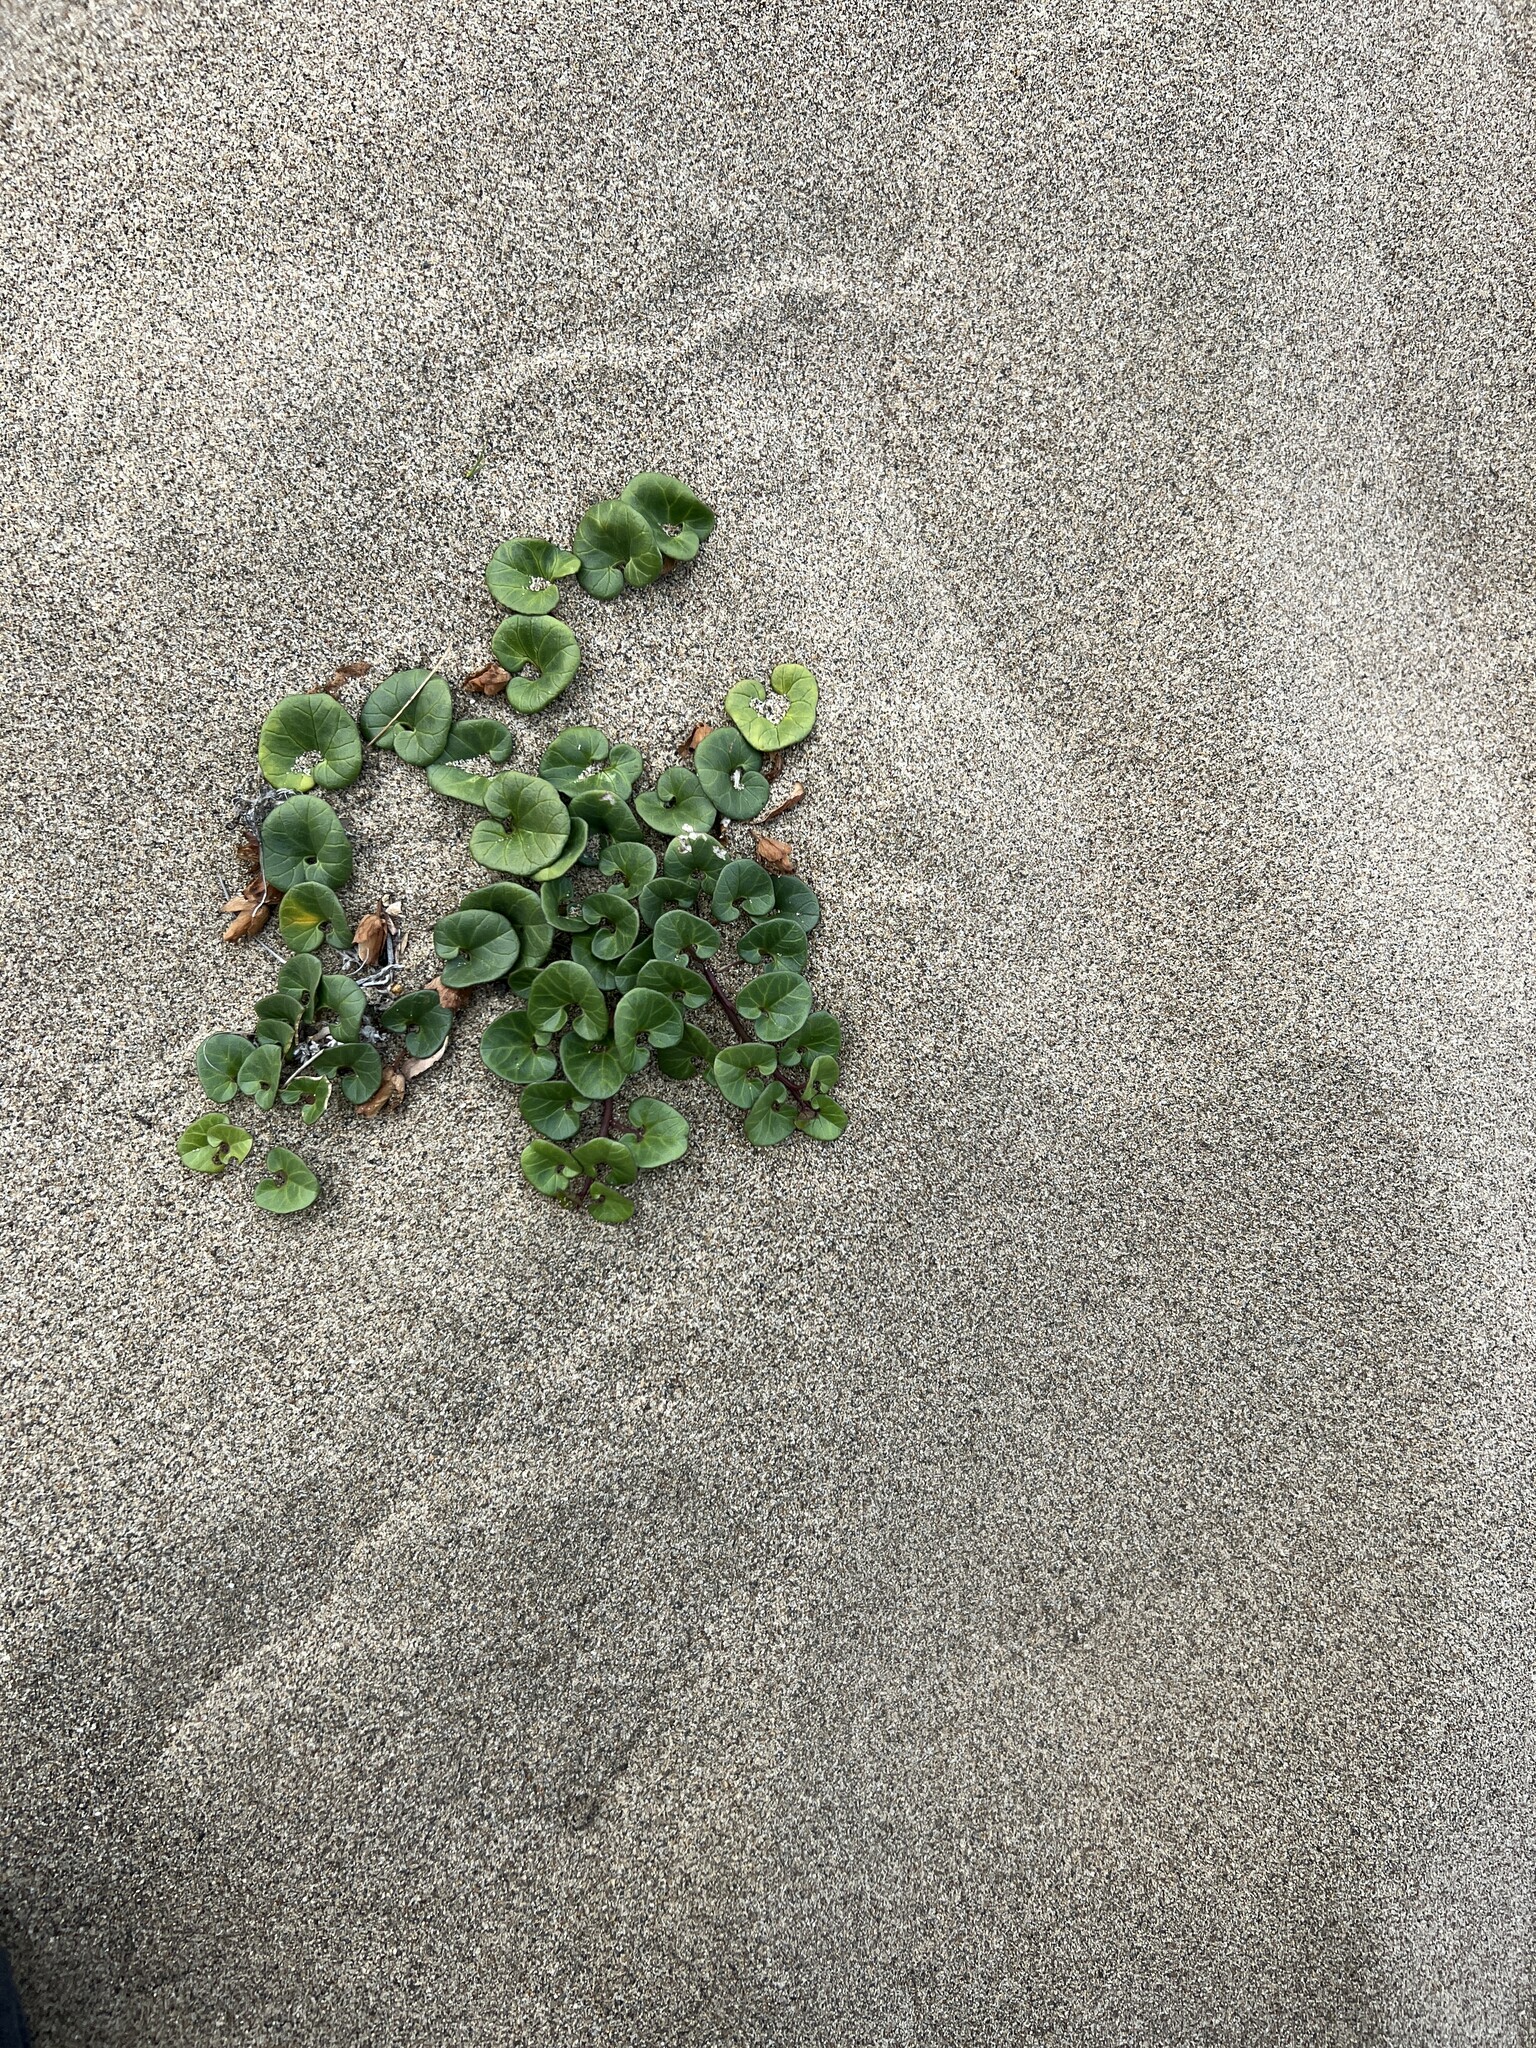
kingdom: Plantae
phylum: Tracheophyta
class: Magnoliopsida
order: Solanales
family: Convolvulaceae
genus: Calystegia
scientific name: Calystegia soldanella
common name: Sea bindweed
